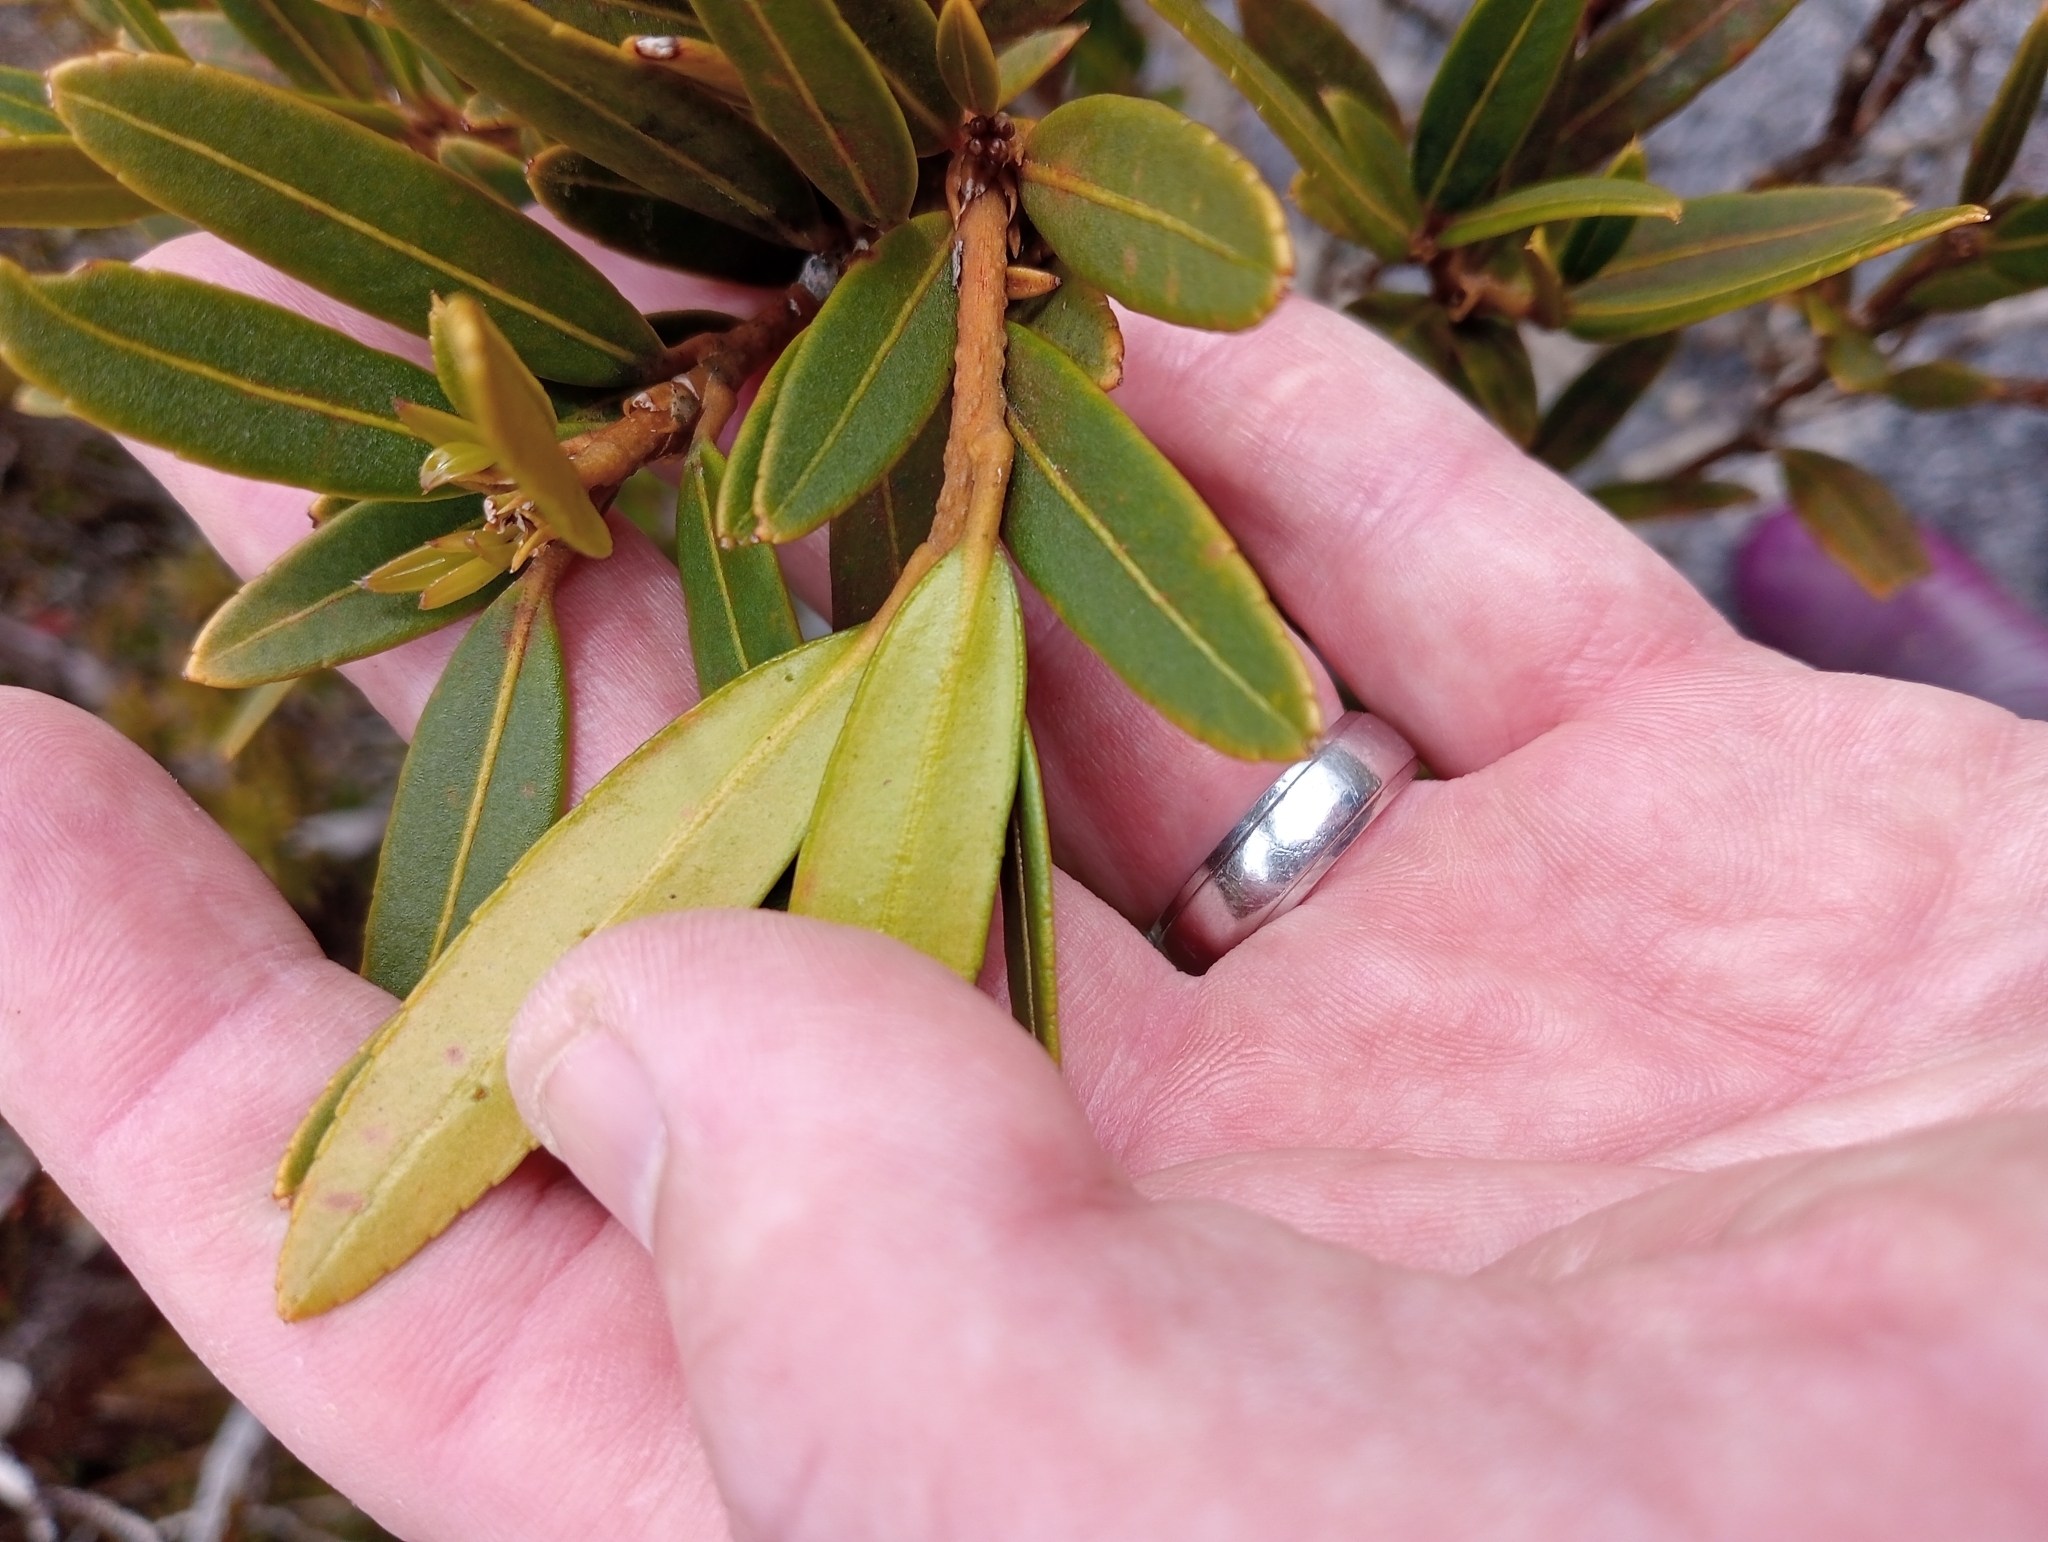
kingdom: Plantae
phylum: Tracheophyta
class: Magnoliopsida
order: Apiales
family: Araliaceae
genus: Pseudopanax
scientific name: Pseudopanax linearis
